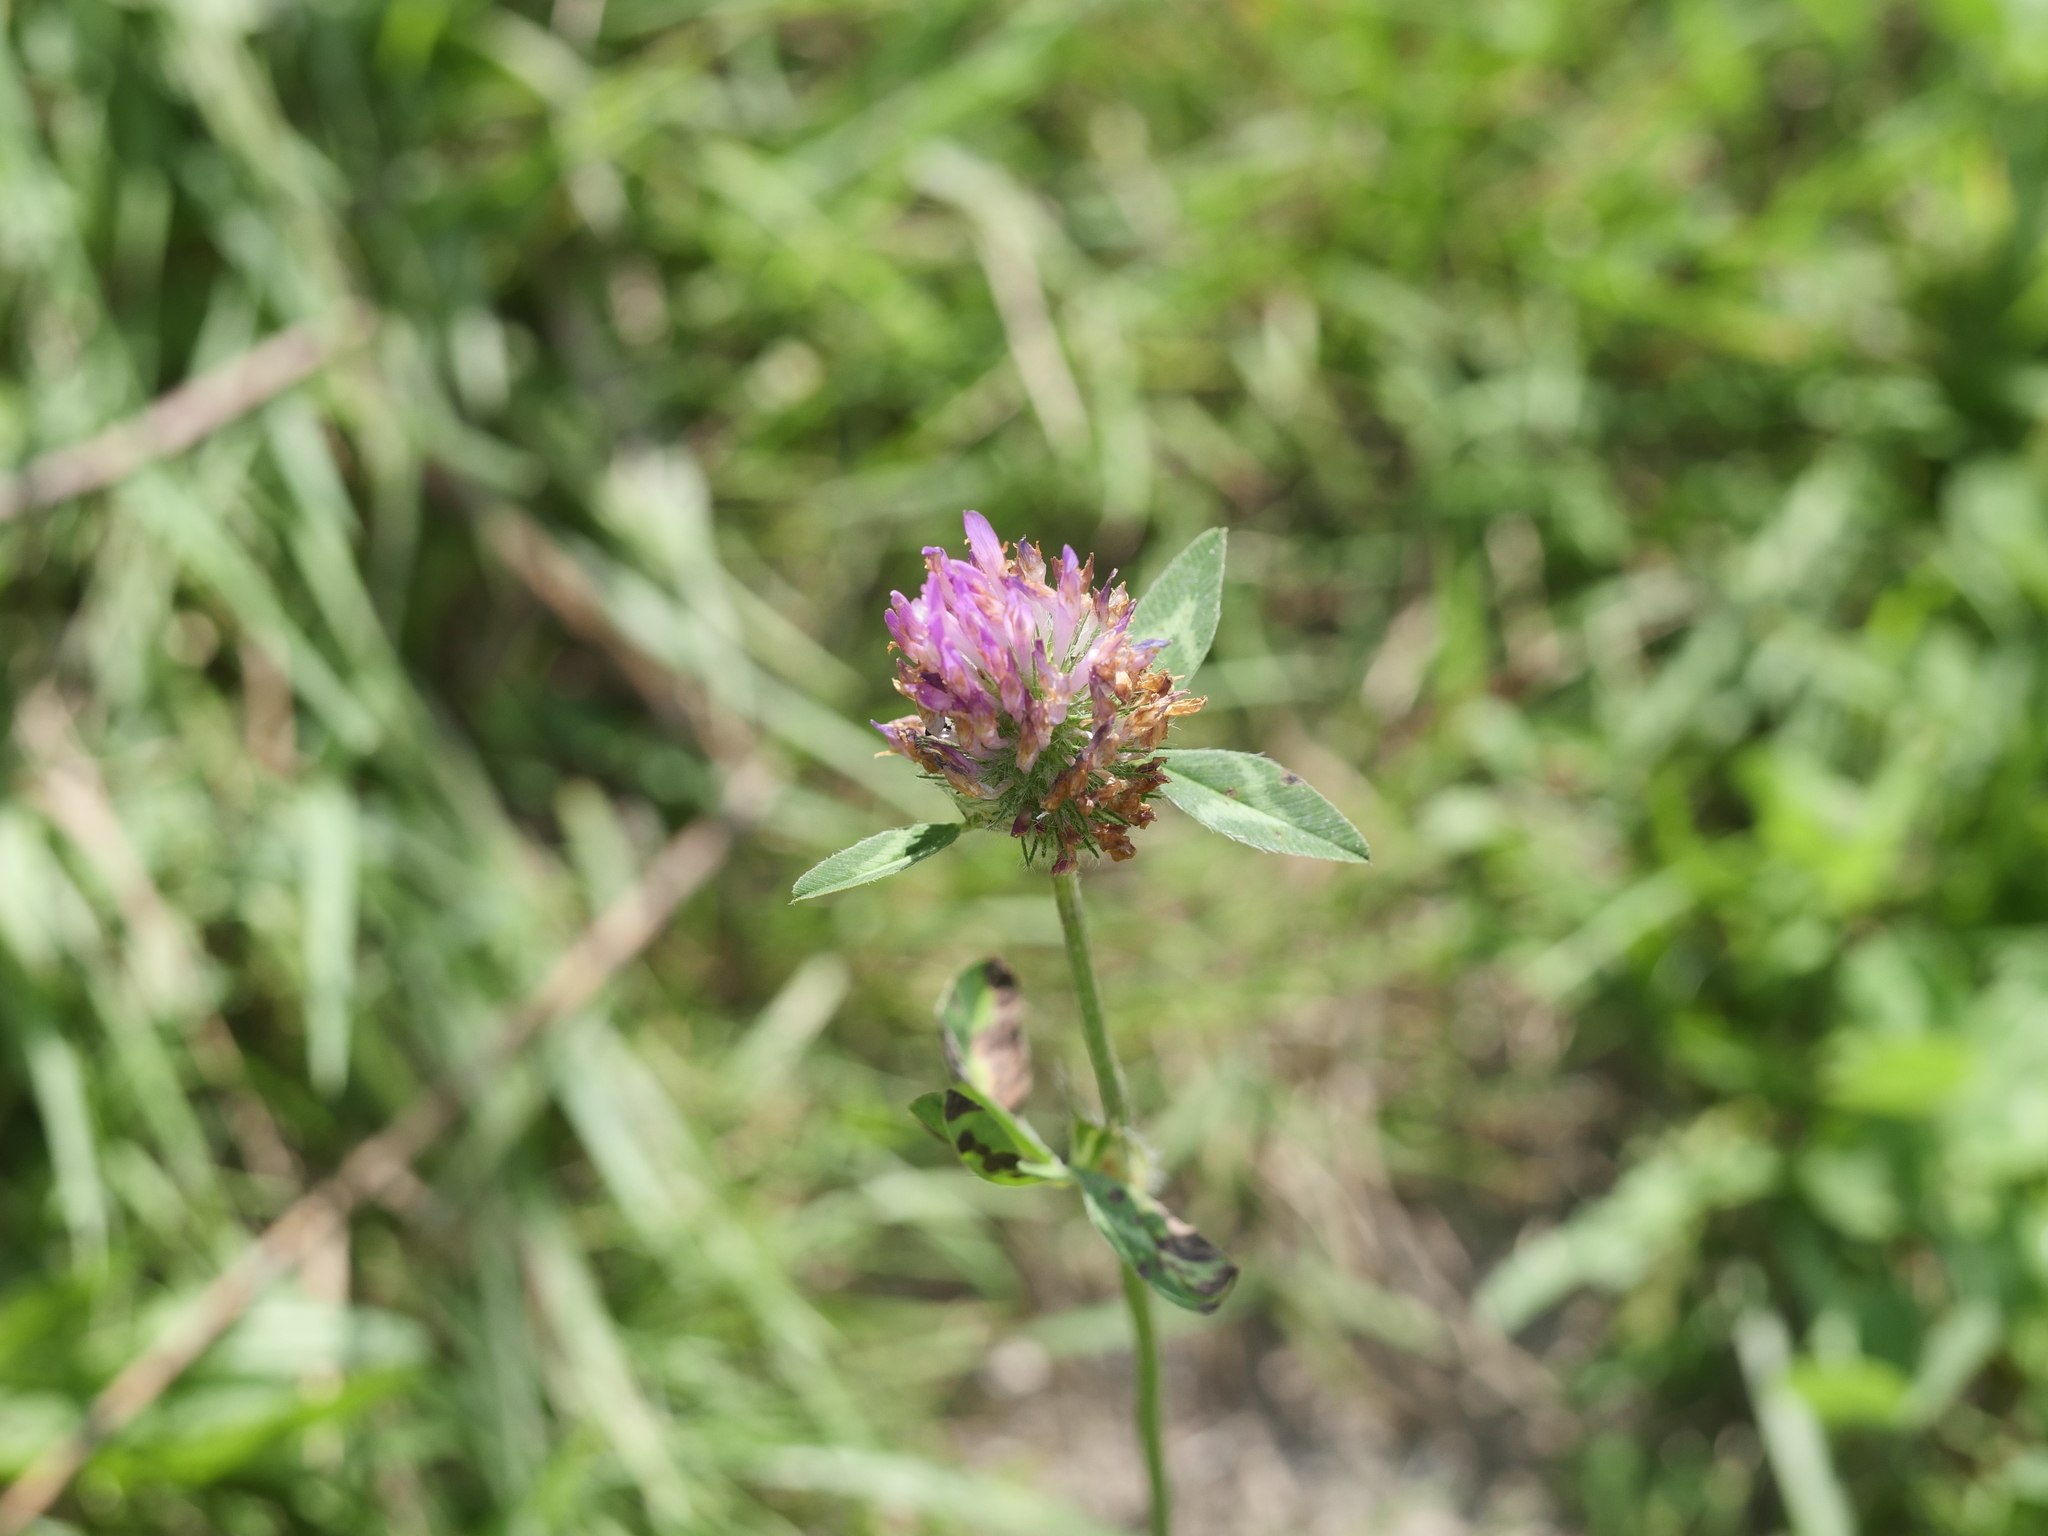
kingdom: Plantae
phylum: Tracheophyta
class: Magnoliopsida
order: Fabales
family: Fabaceae
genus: Trifolium
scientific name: Trifolium pratense
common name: Red clover
